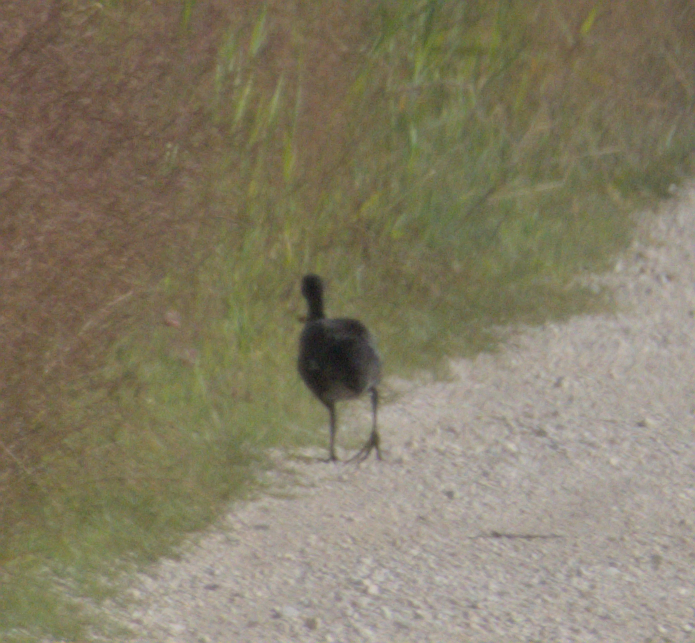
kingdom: Animalia
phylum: Chordata
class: Aves
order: Gruiformes
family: Rallidae
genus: Fulica
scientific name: Fulica americana
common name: American coot
